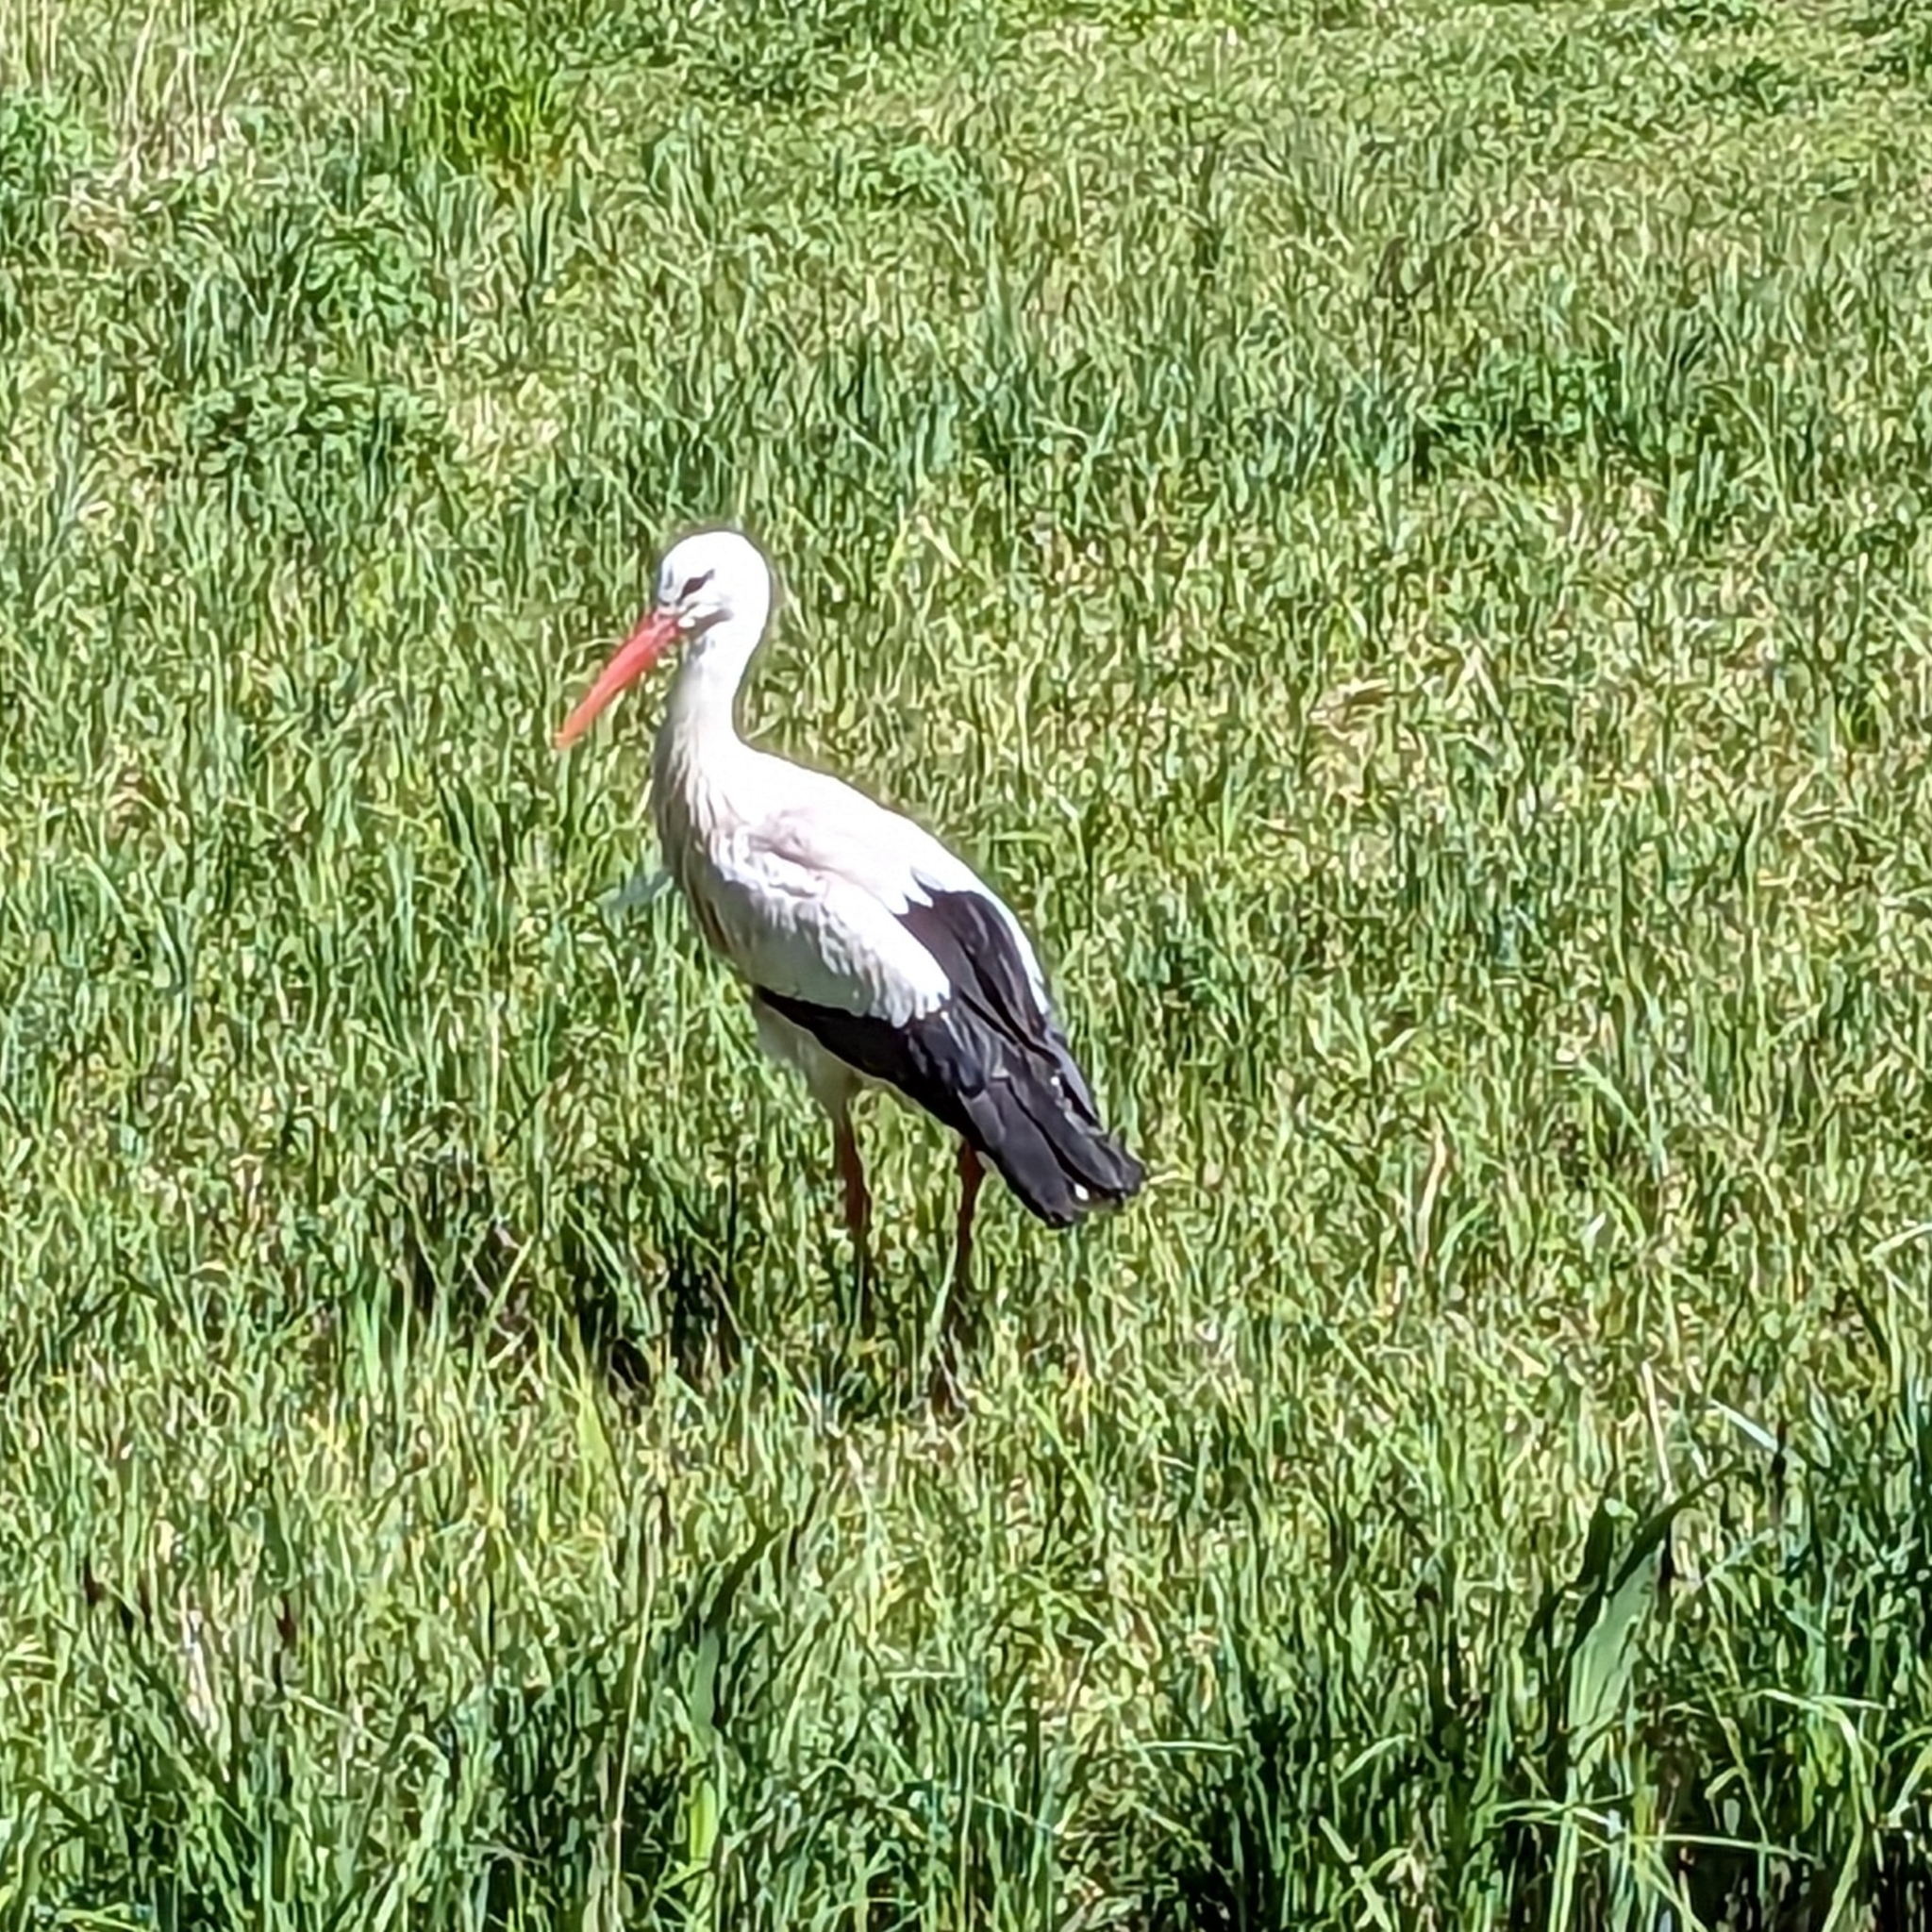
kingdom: Animalia
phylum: Chordata
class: Aves
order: Ciconiiformes
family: Ciconiidae
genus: Ciconia
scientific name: Ciconia ciconia
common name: White stork
